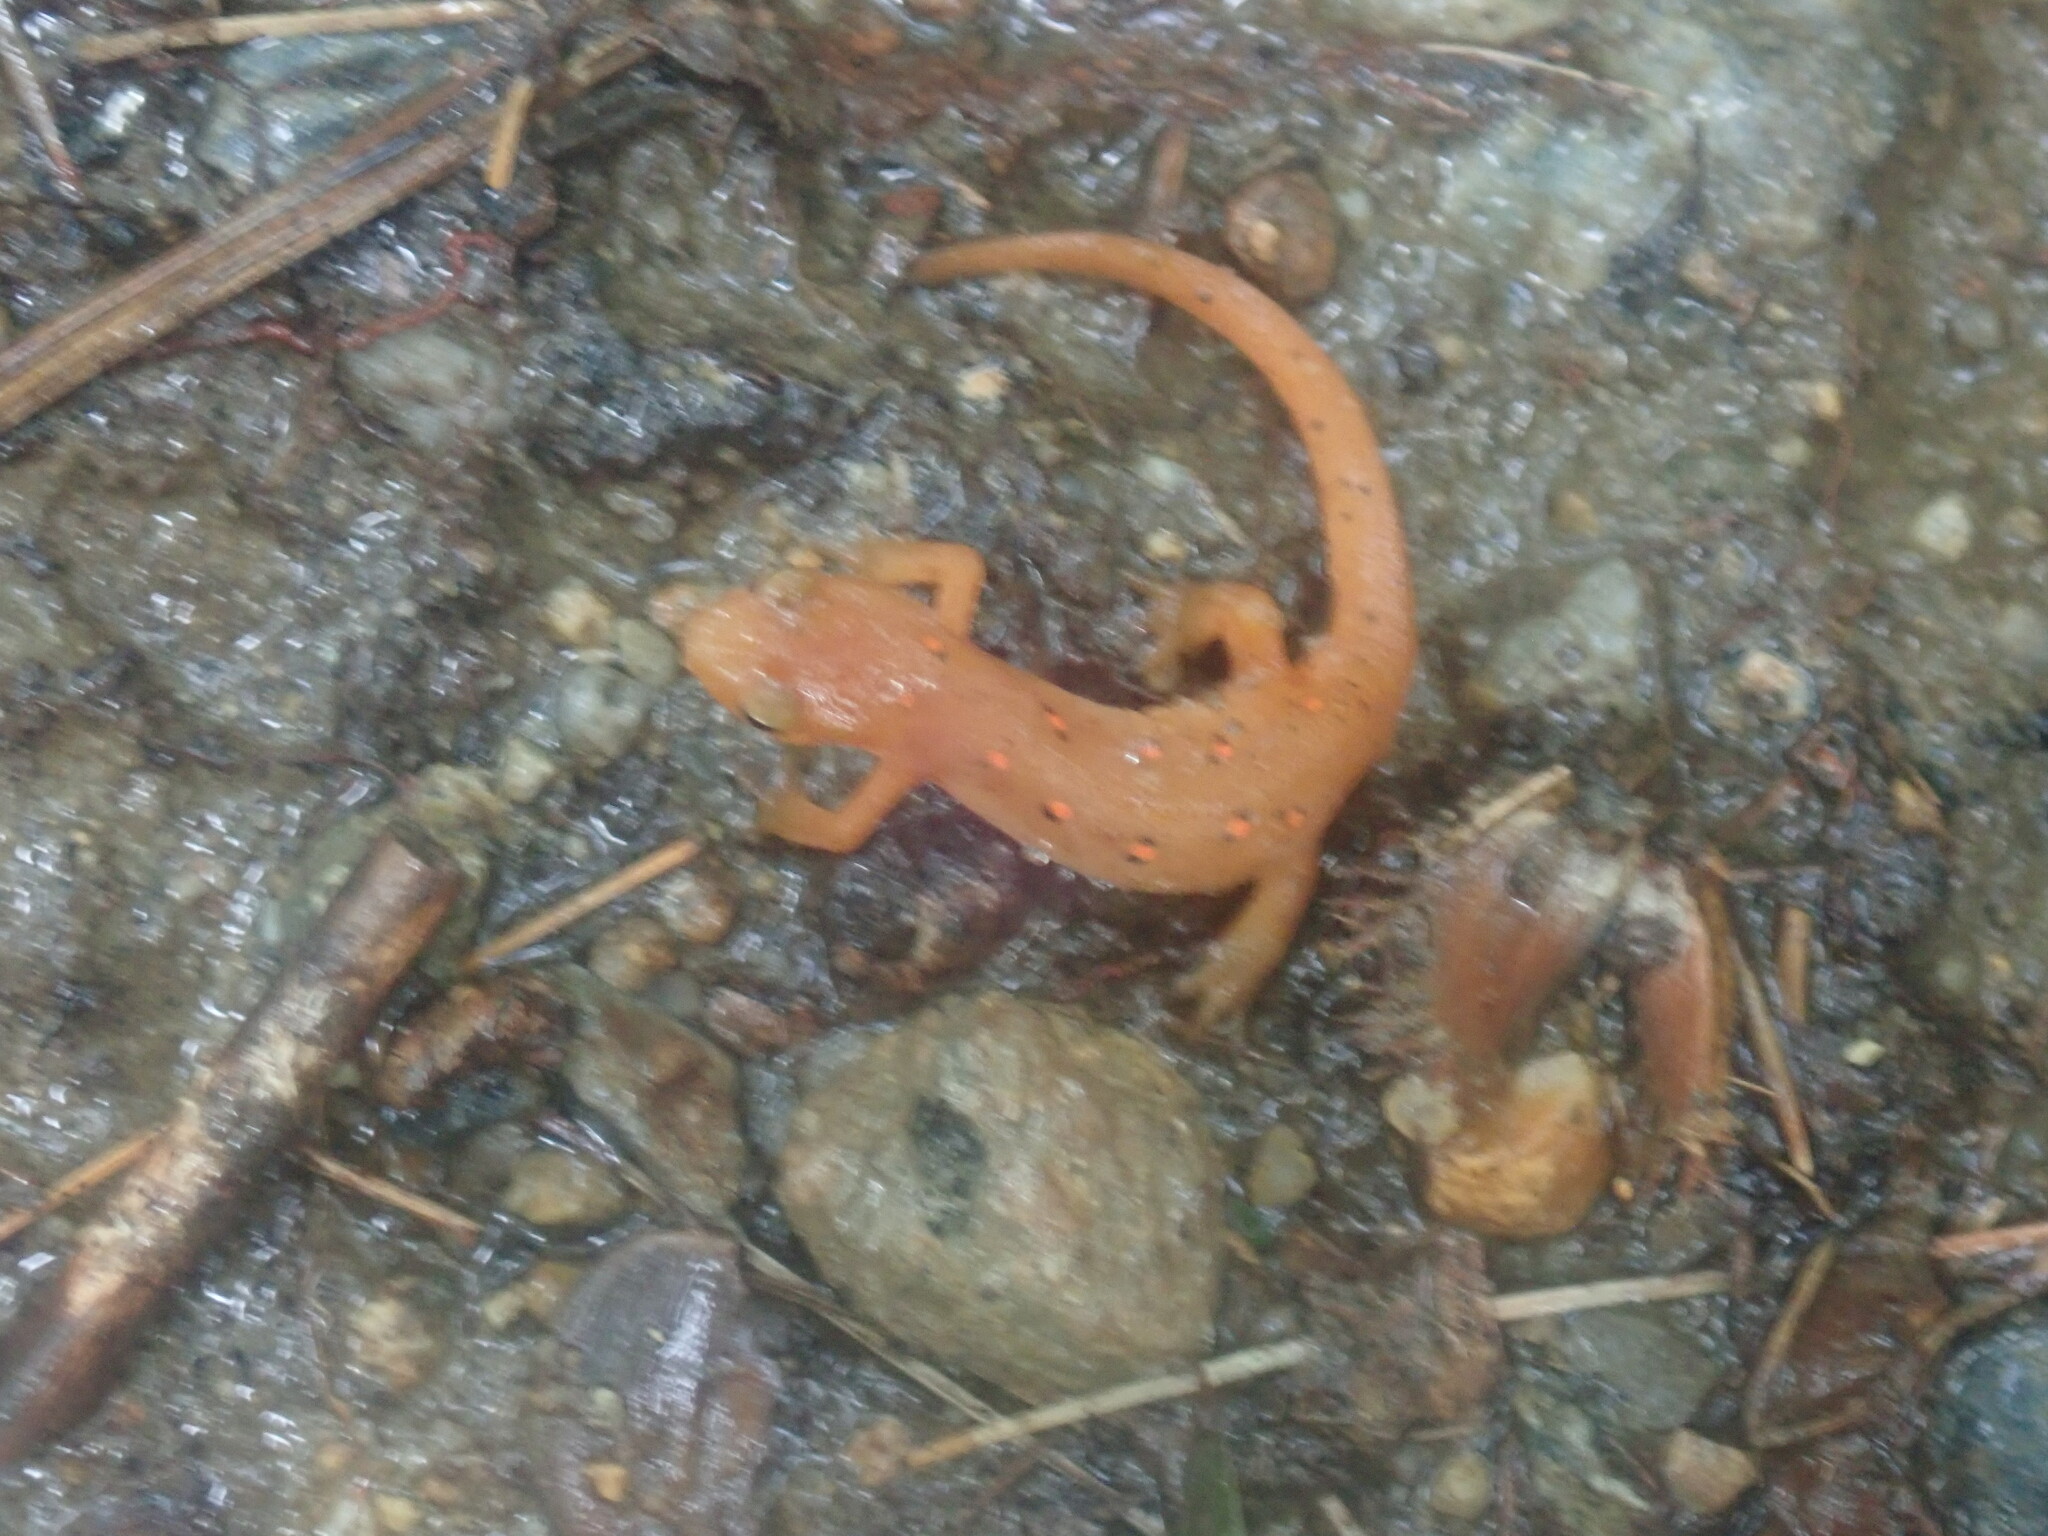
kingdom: Animalia
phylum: Chordata
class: Amphibia
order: Caudata
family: Salamandridae
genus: Notophthalmus
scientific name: Notophthalmus viridescens
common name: Eastern newt
